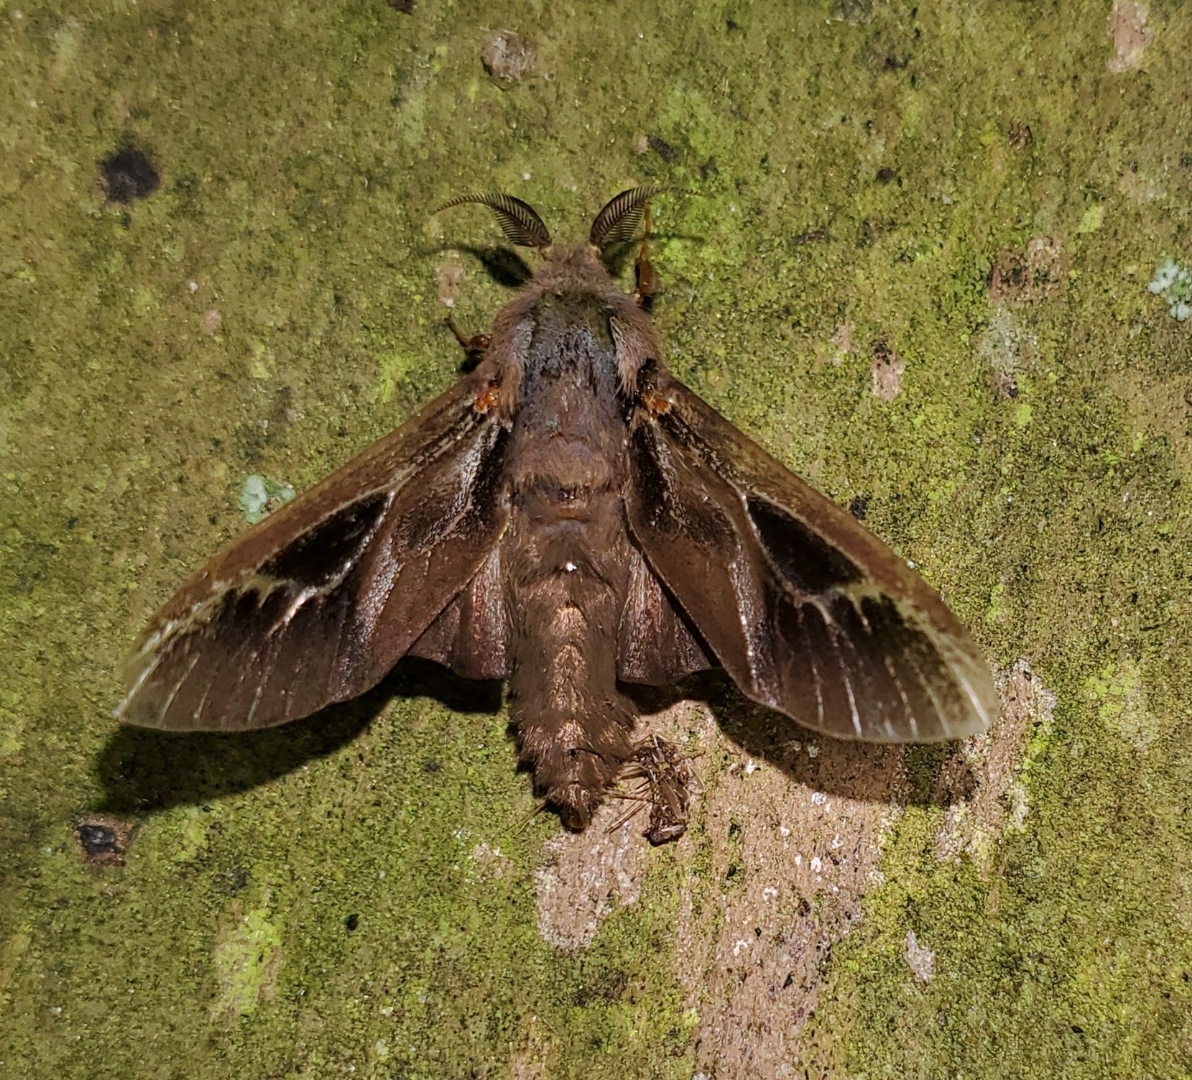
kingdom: Animalia
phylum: Arthropoda
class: Insecta
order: Lepidoptera
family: Psychidae
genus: Oiketicus
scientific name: Oiketicus
